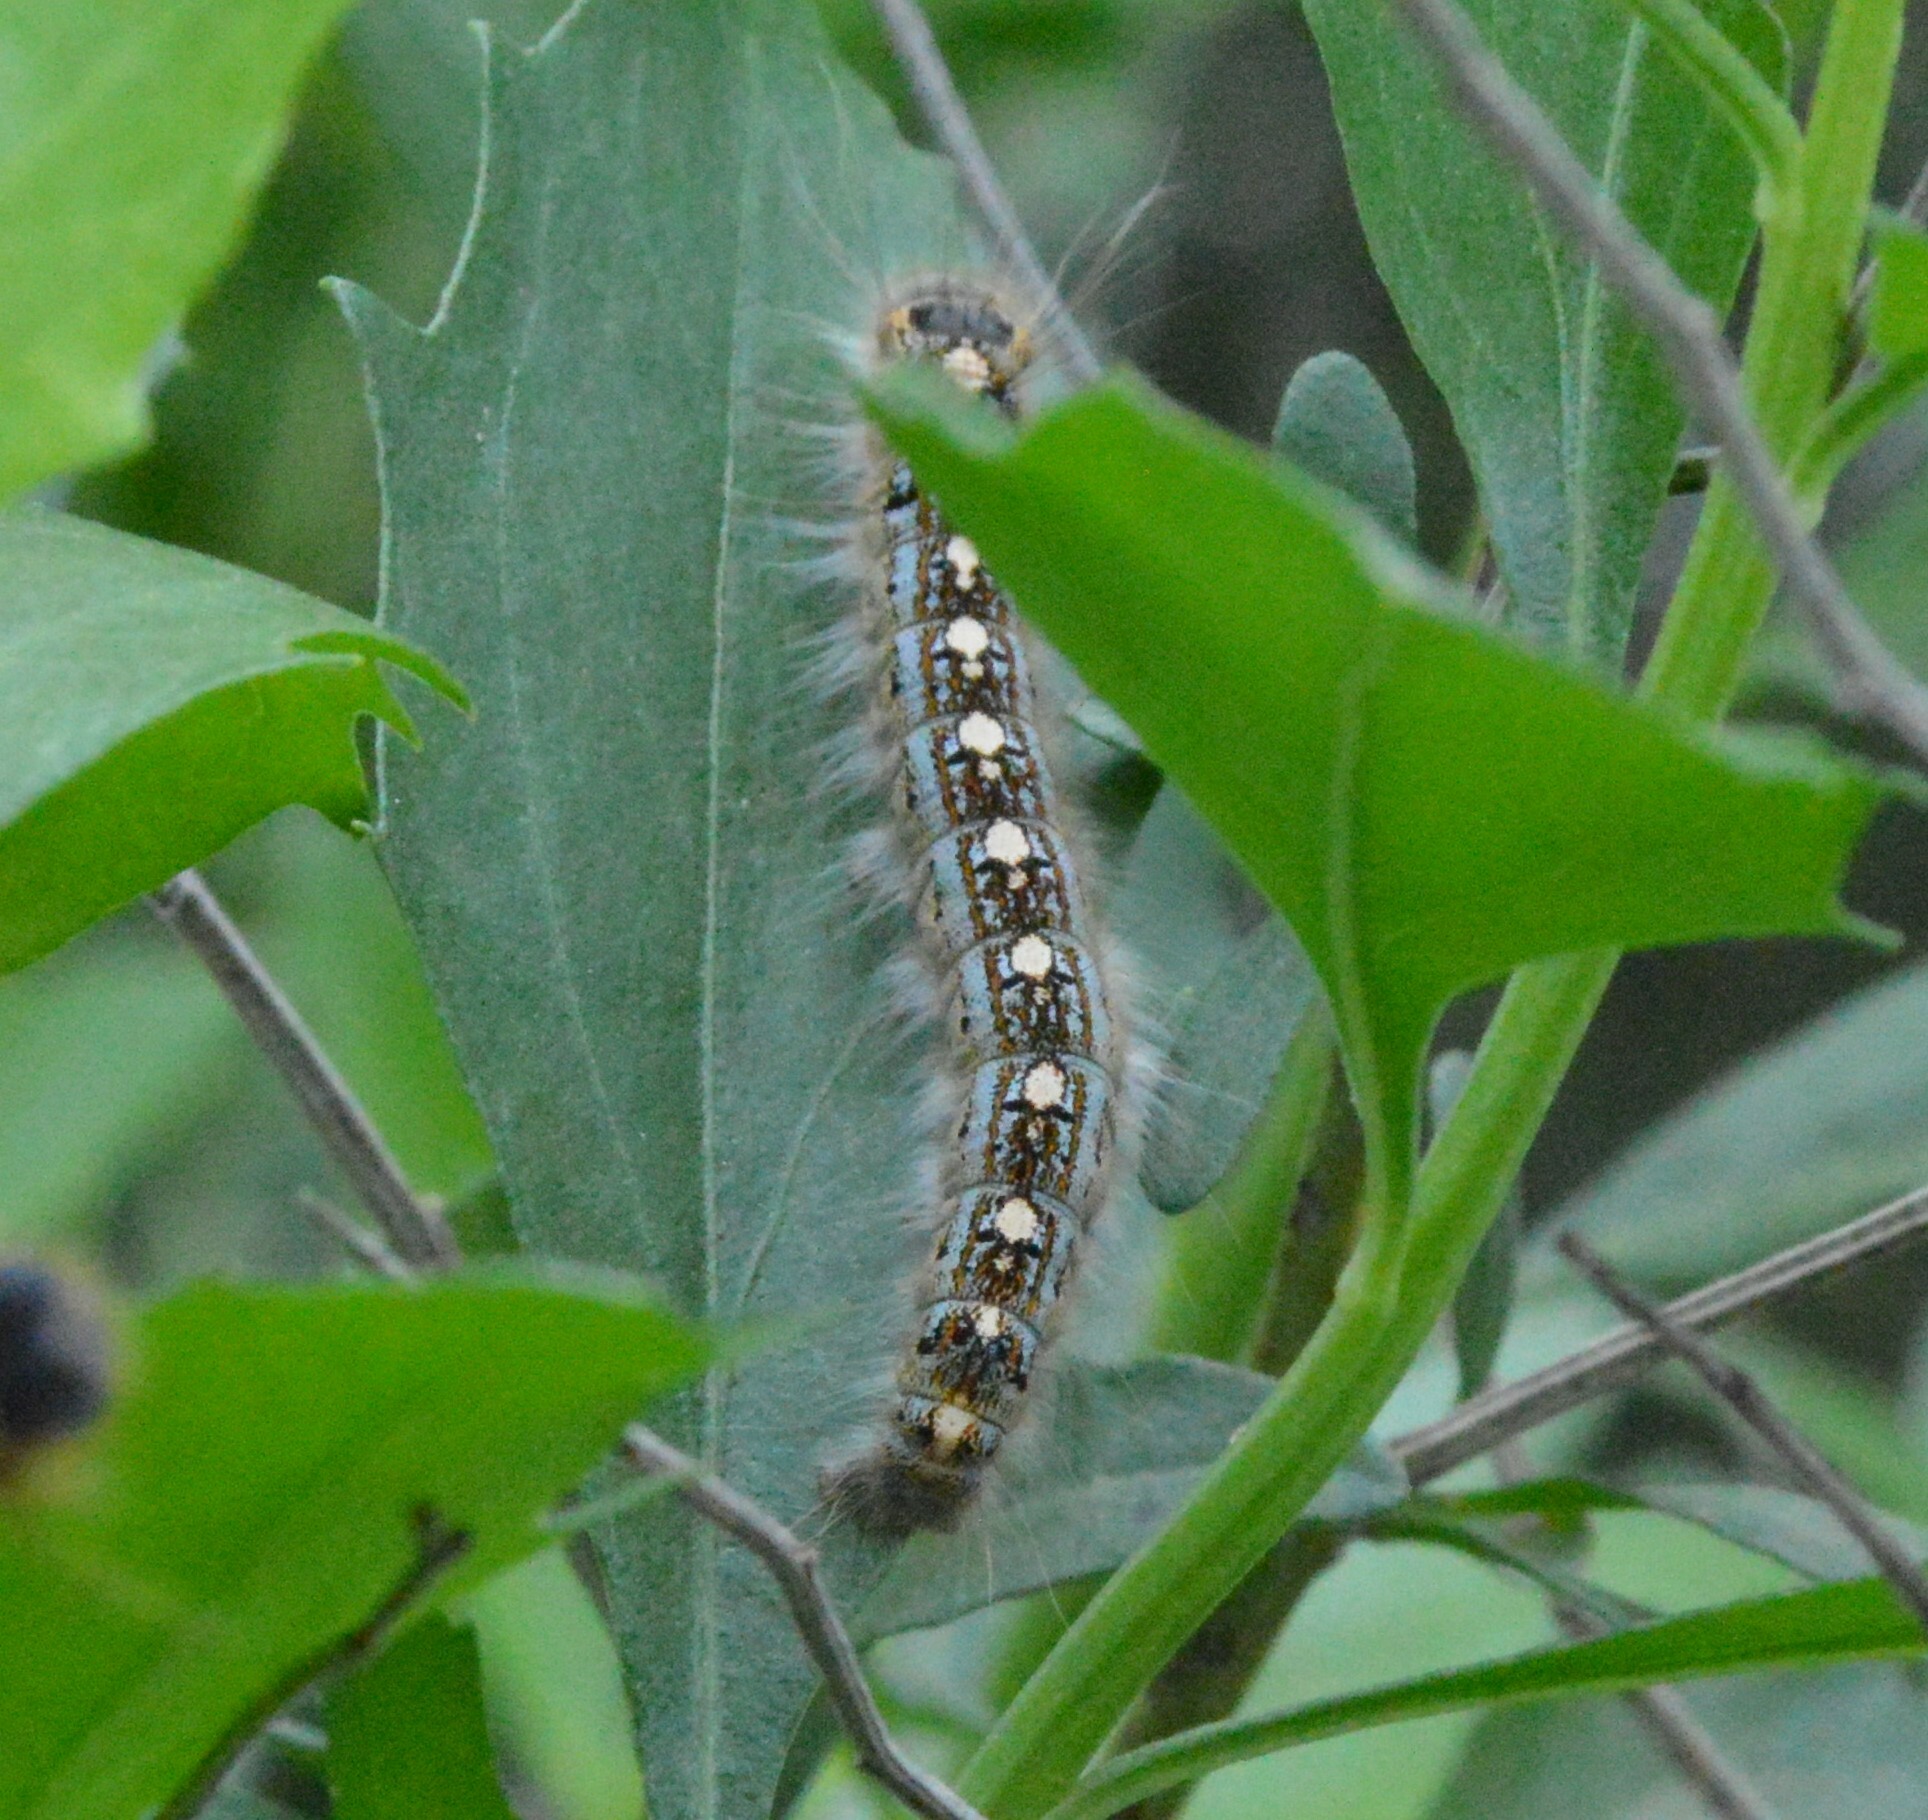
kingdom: Animalia
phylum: Arthropoda
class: Insecta
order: Lepidoptera
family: Lasiocampidae
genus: Malacosoma
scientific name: Malacosoma disstria
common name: Forest tent caterpillar
